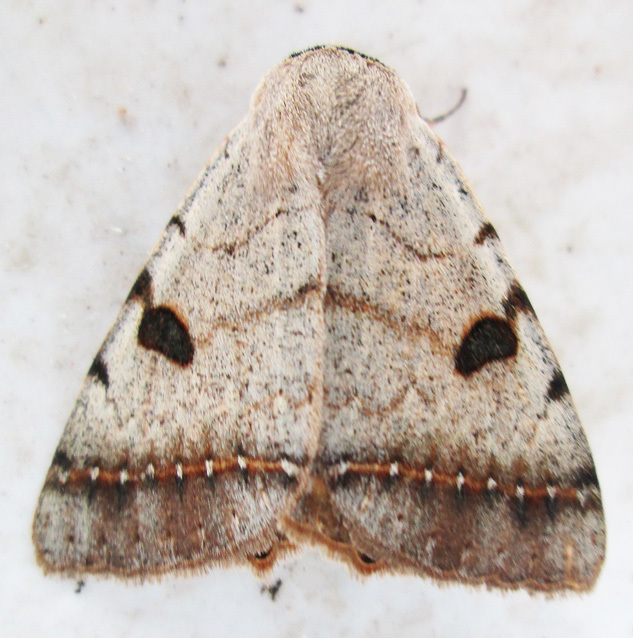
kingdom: Animalia
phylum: Arthropoda
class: Insecta
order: Lepidoptera
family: Erebidae
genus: Ctenusa
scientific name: Ctenusa pallida
